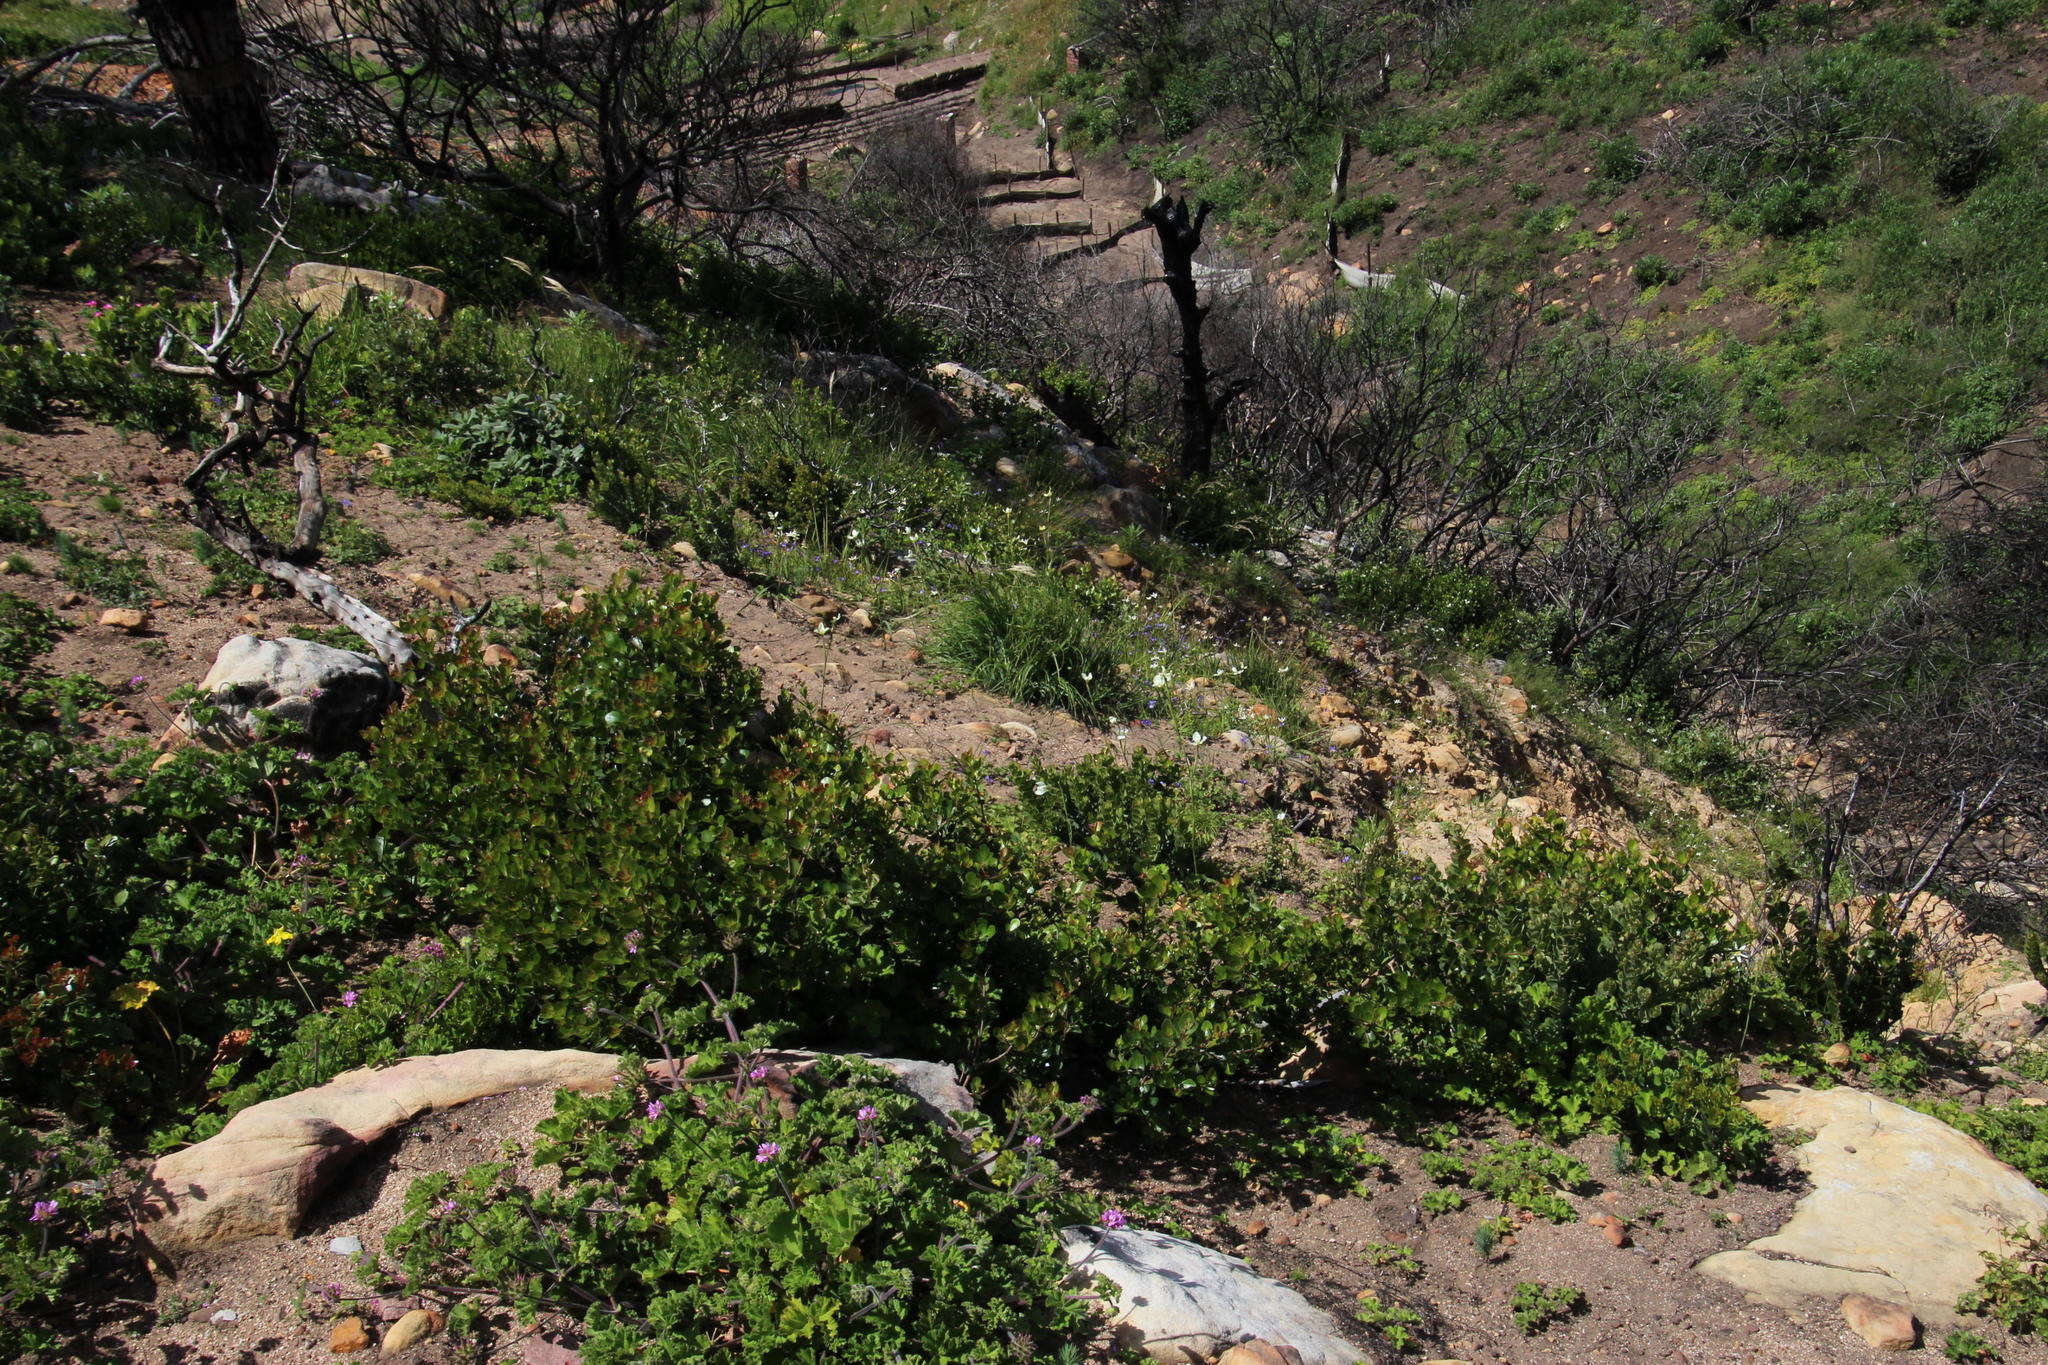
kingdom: Plantae
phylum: Tracheophyta
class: Liliopsida
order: Asparagales
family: Iridaceae
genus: Moraea
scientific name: Moraea tricuspidata
